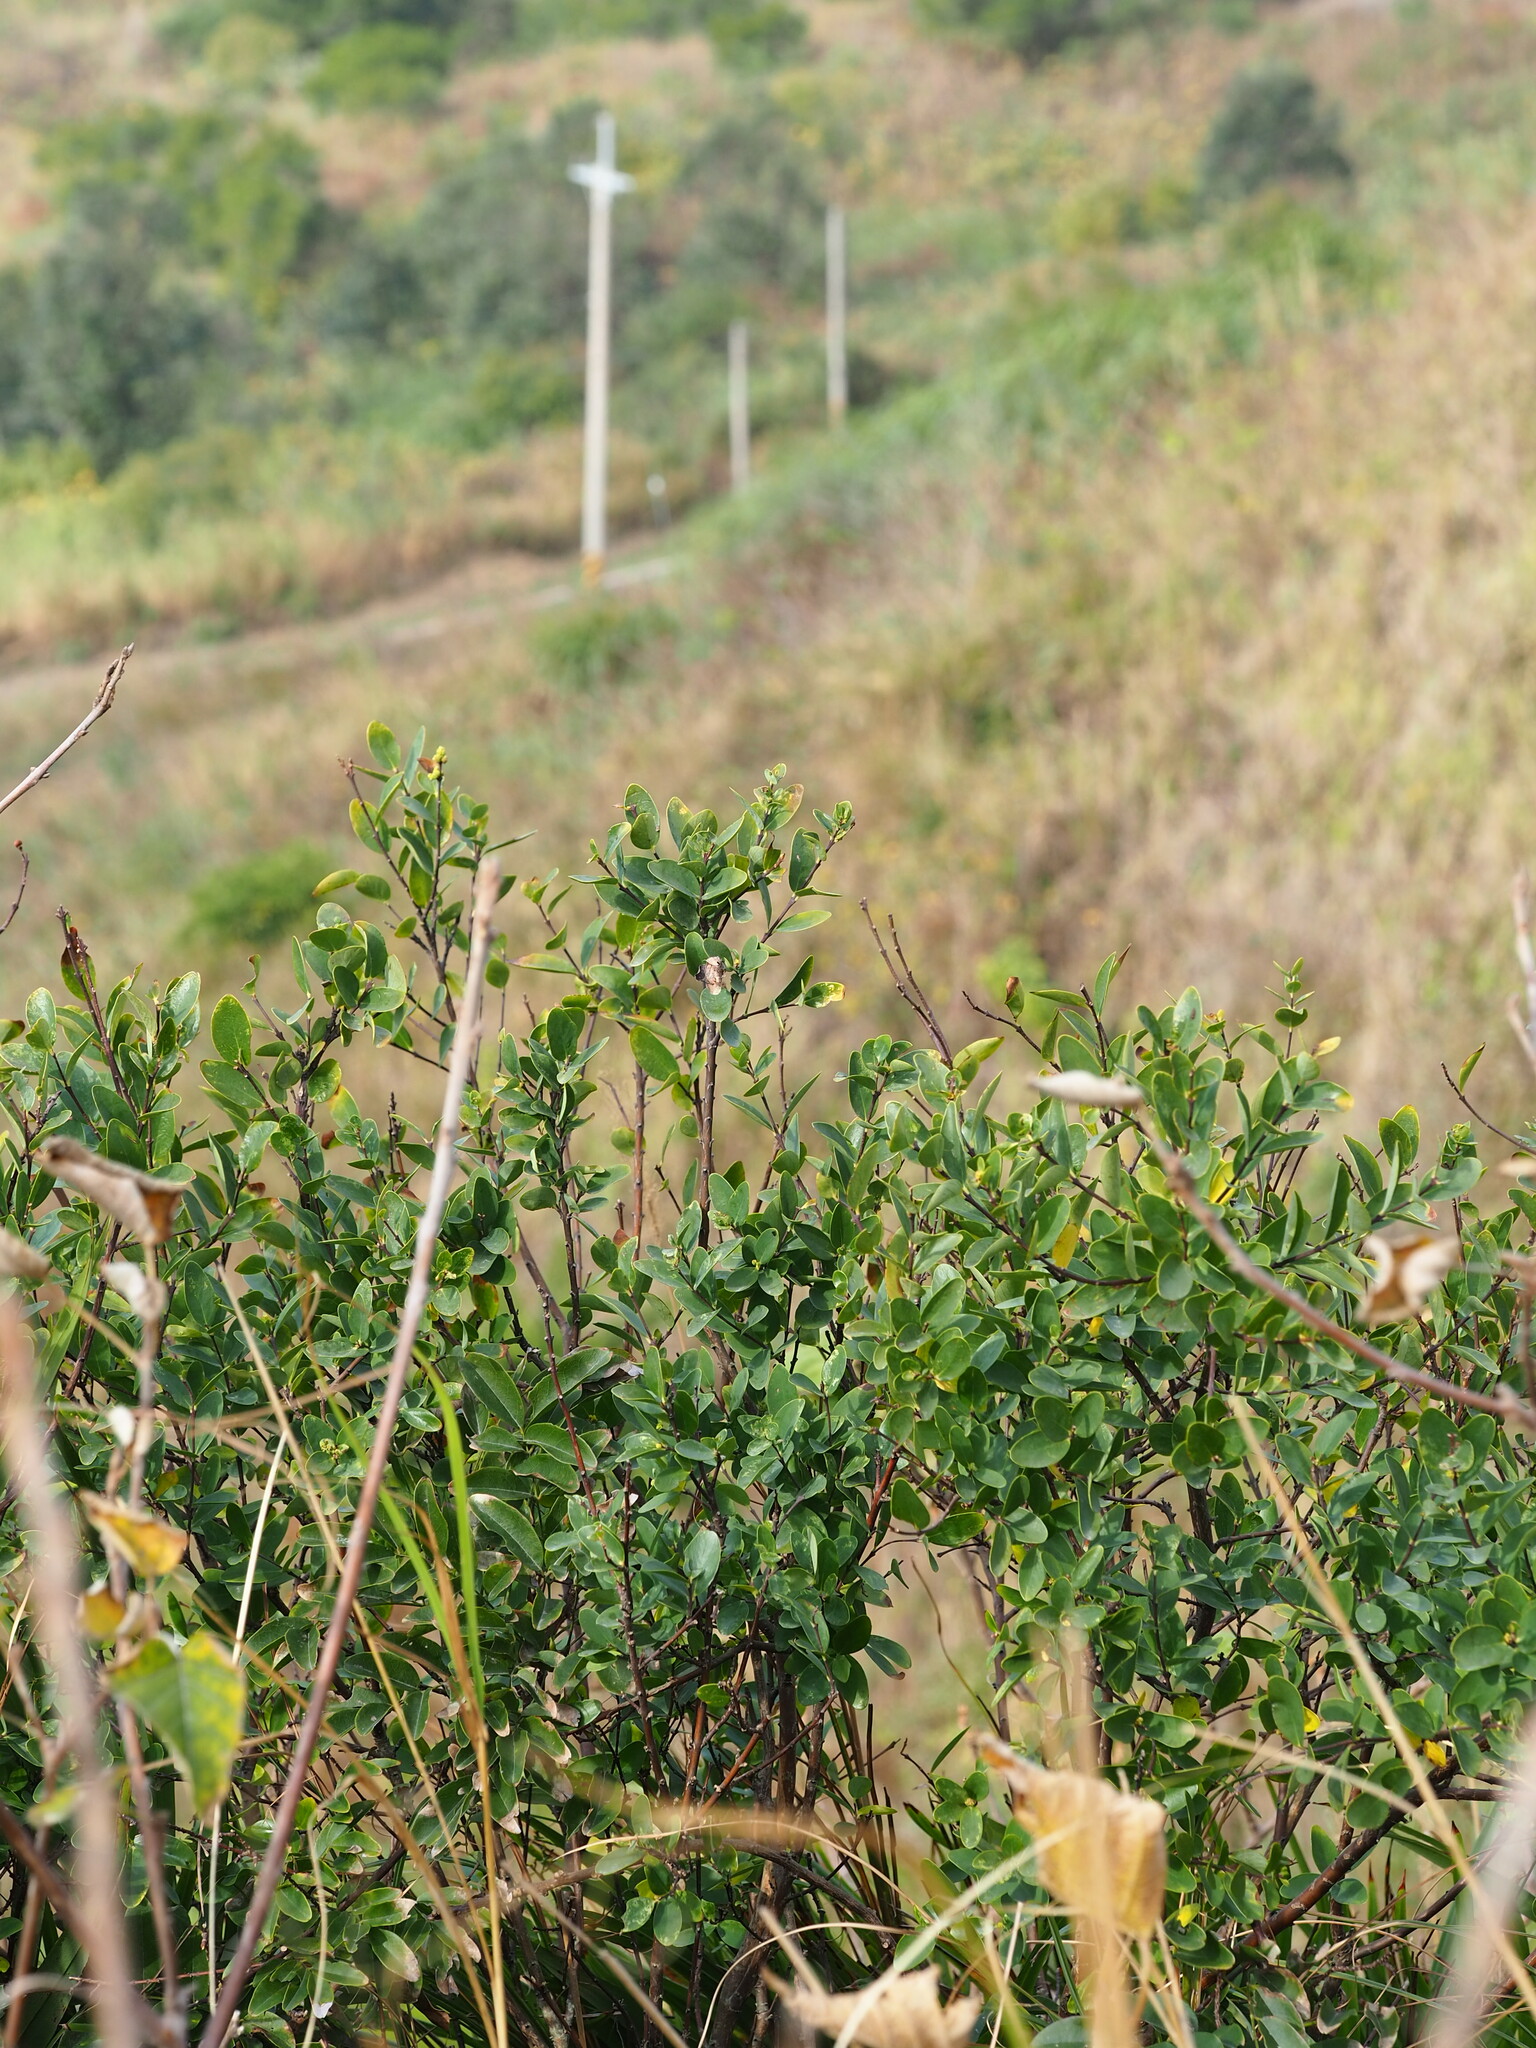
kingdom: Plantae
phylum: Tracheophyta
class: Magnoliopsida
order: Malvales
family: Thymelaeaceae
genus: Wikstroemia
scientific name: Wikstroemia indica
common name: Tiebush
